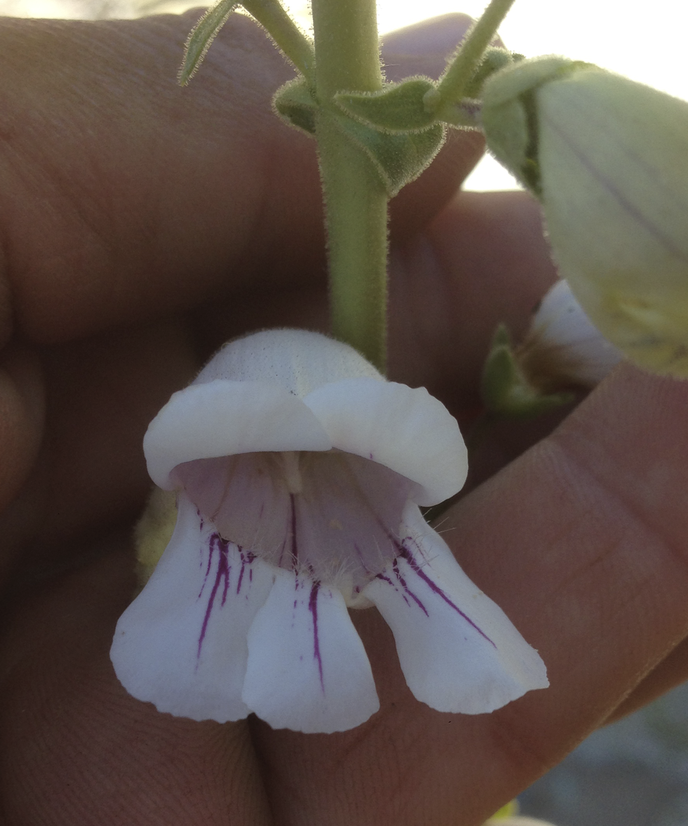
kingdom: Plantae
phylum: Tracheophyta
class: Magnoliopsida
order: Lamiales
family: Plantaginaceae
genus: Penstemon
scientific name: Penstemon eximius
